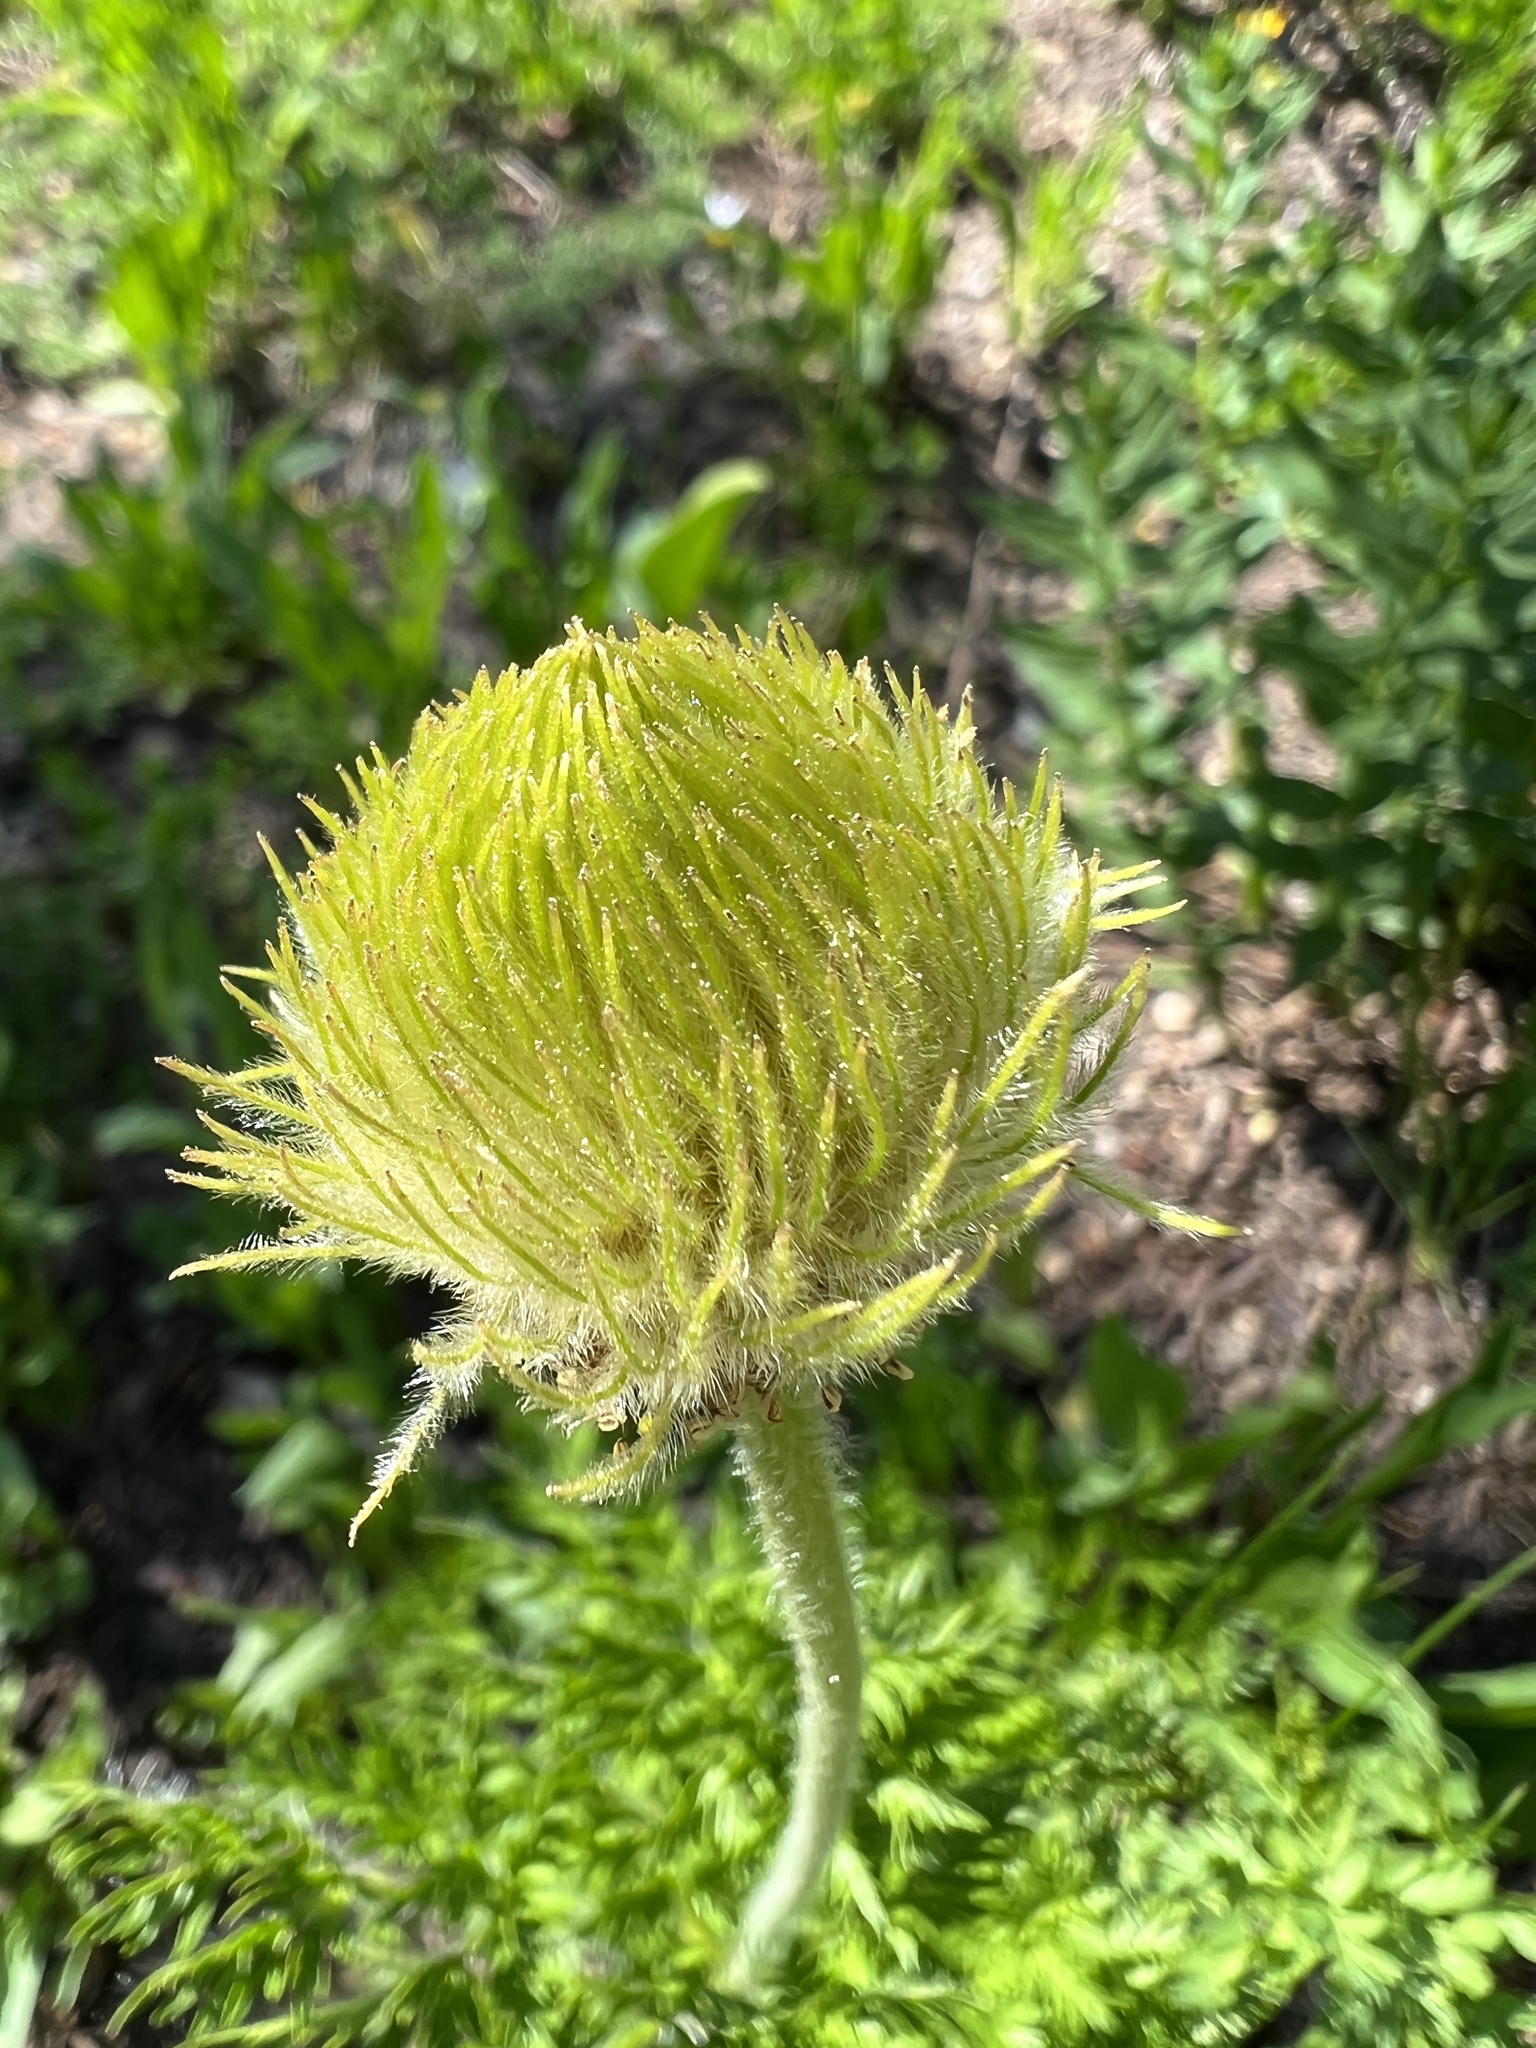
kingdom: Plantae
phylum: Tracheophyta
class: Magnoliopsida
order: Ranunculales
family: Ranunculaceae
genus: Pulsatilla
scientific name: Pulsatilla occidentalis
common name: Mountain pasqueflower
